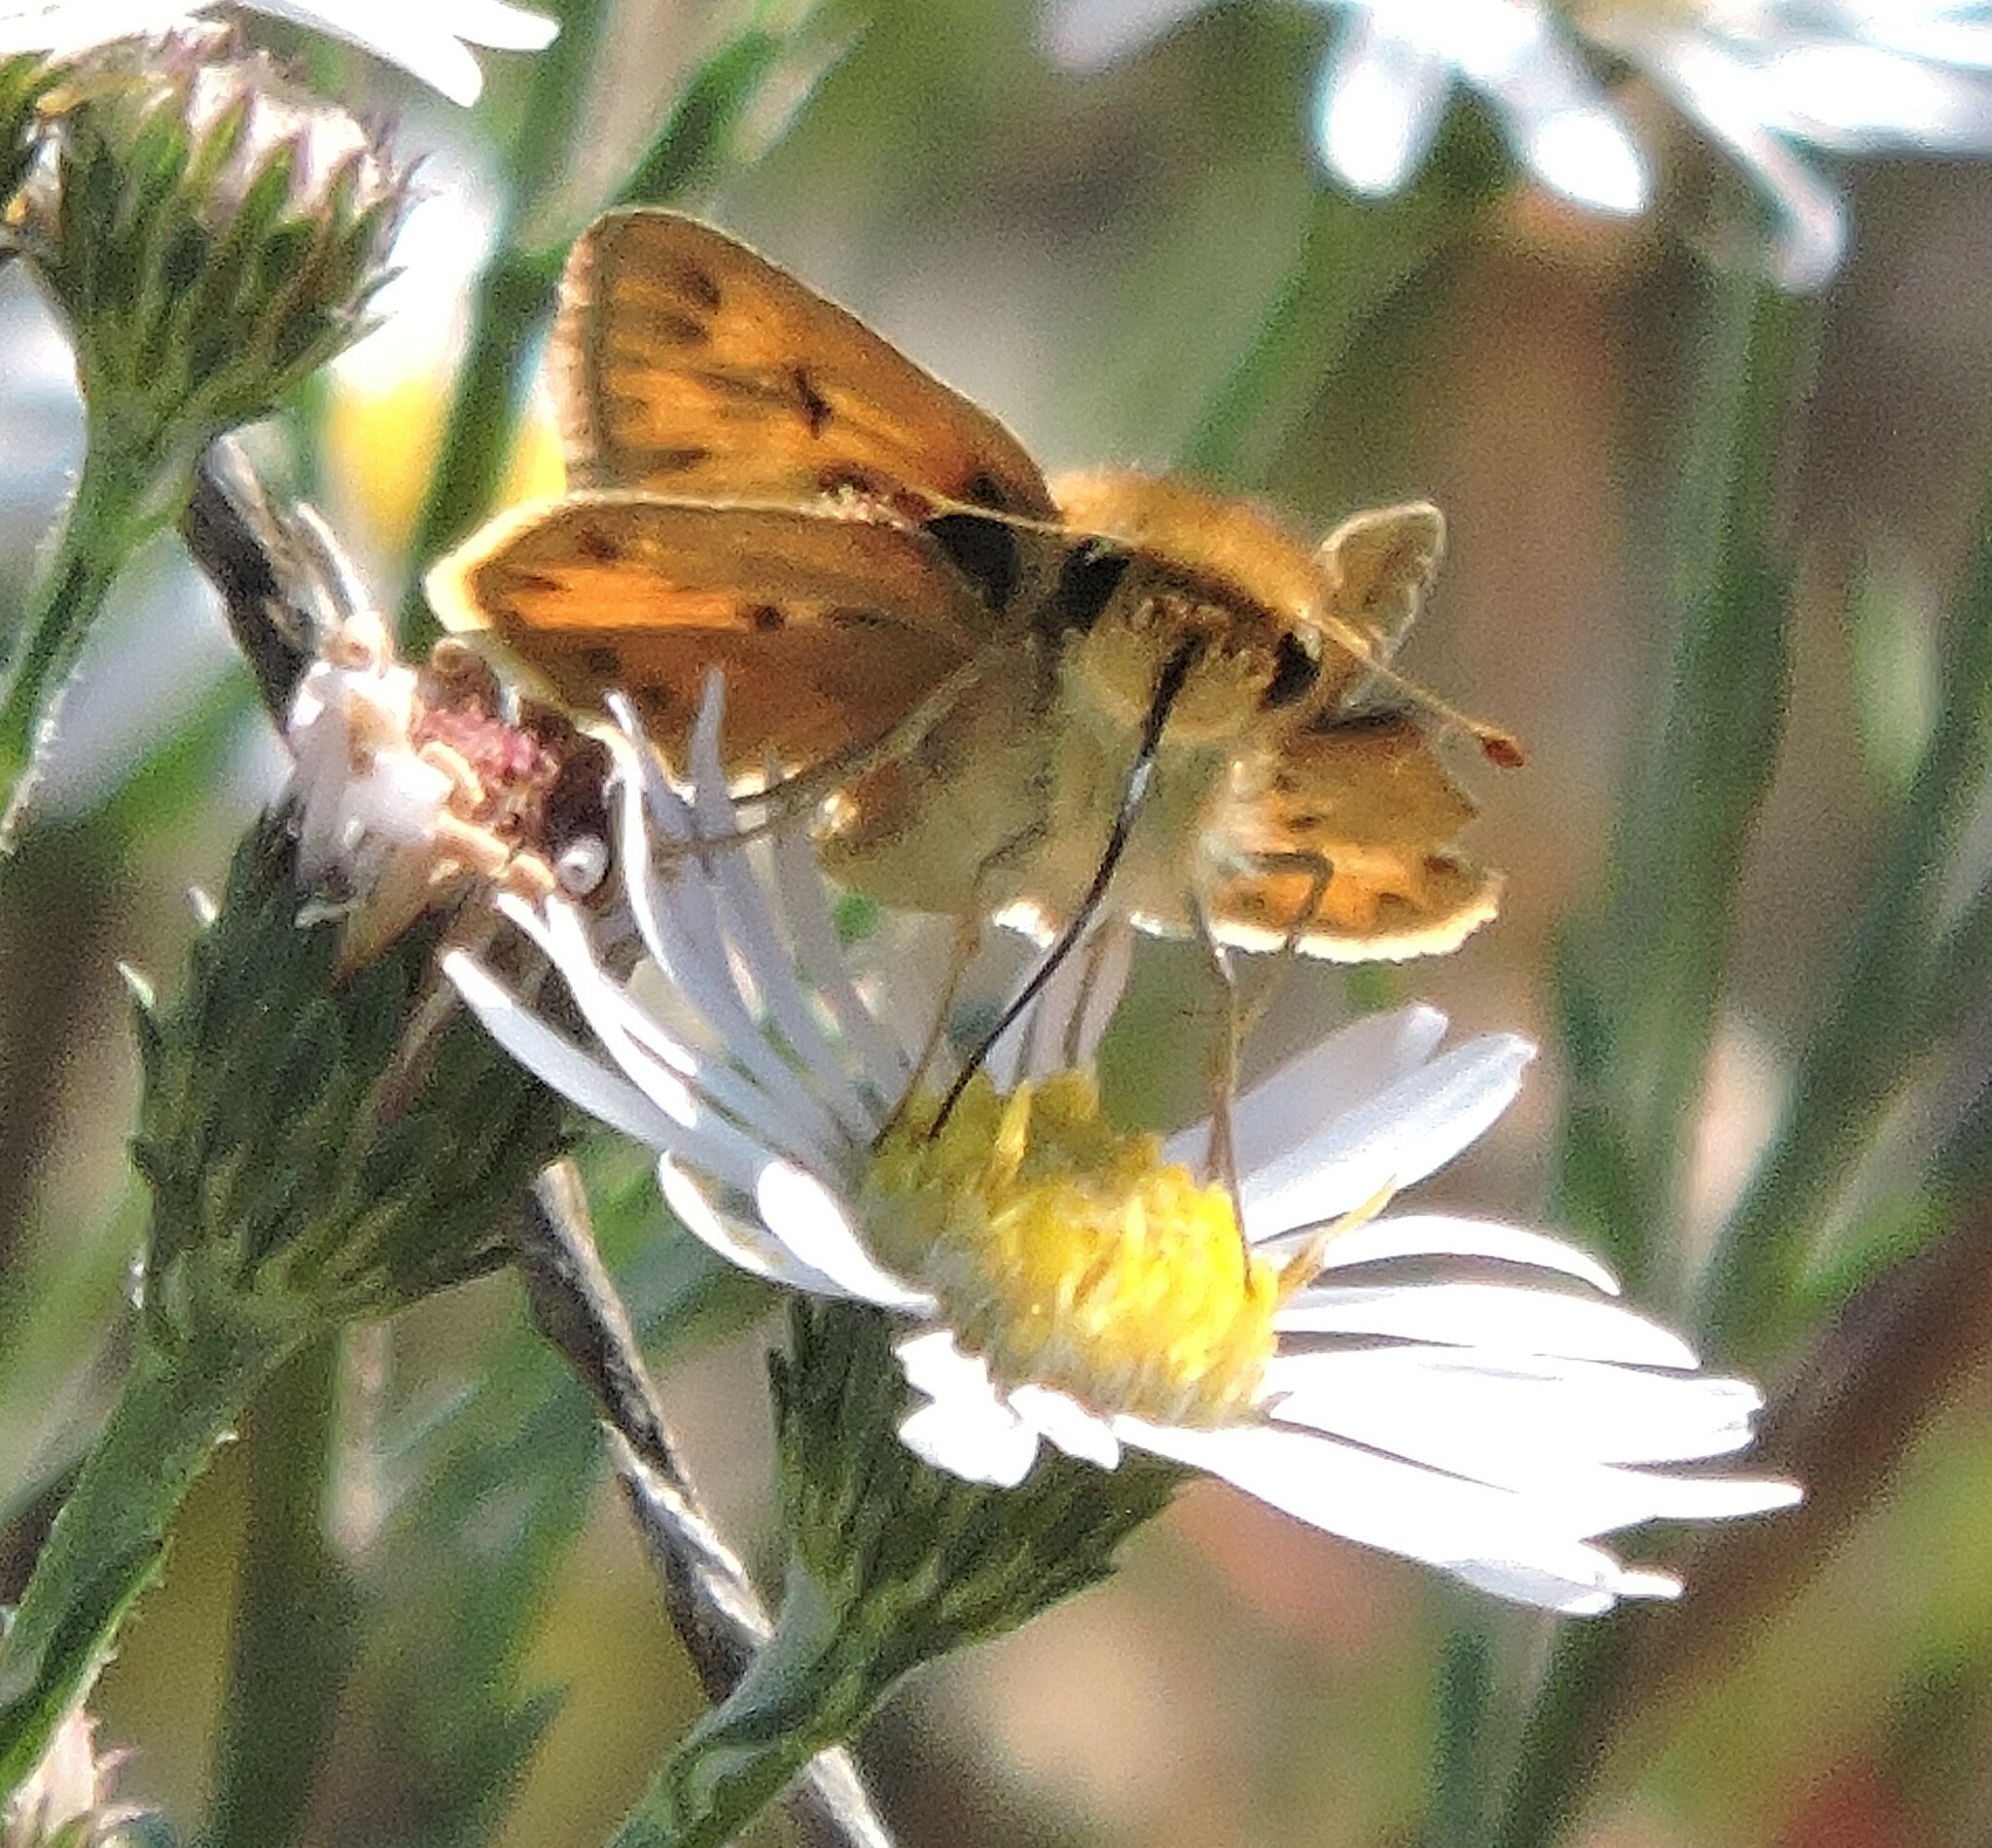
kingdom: Animalia
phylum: Arthropoda
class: Insecta
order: Lepidoptera
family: Hesperiidae
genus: Hylephila
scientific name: Hylephila phyleus
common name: Fiery skipper
